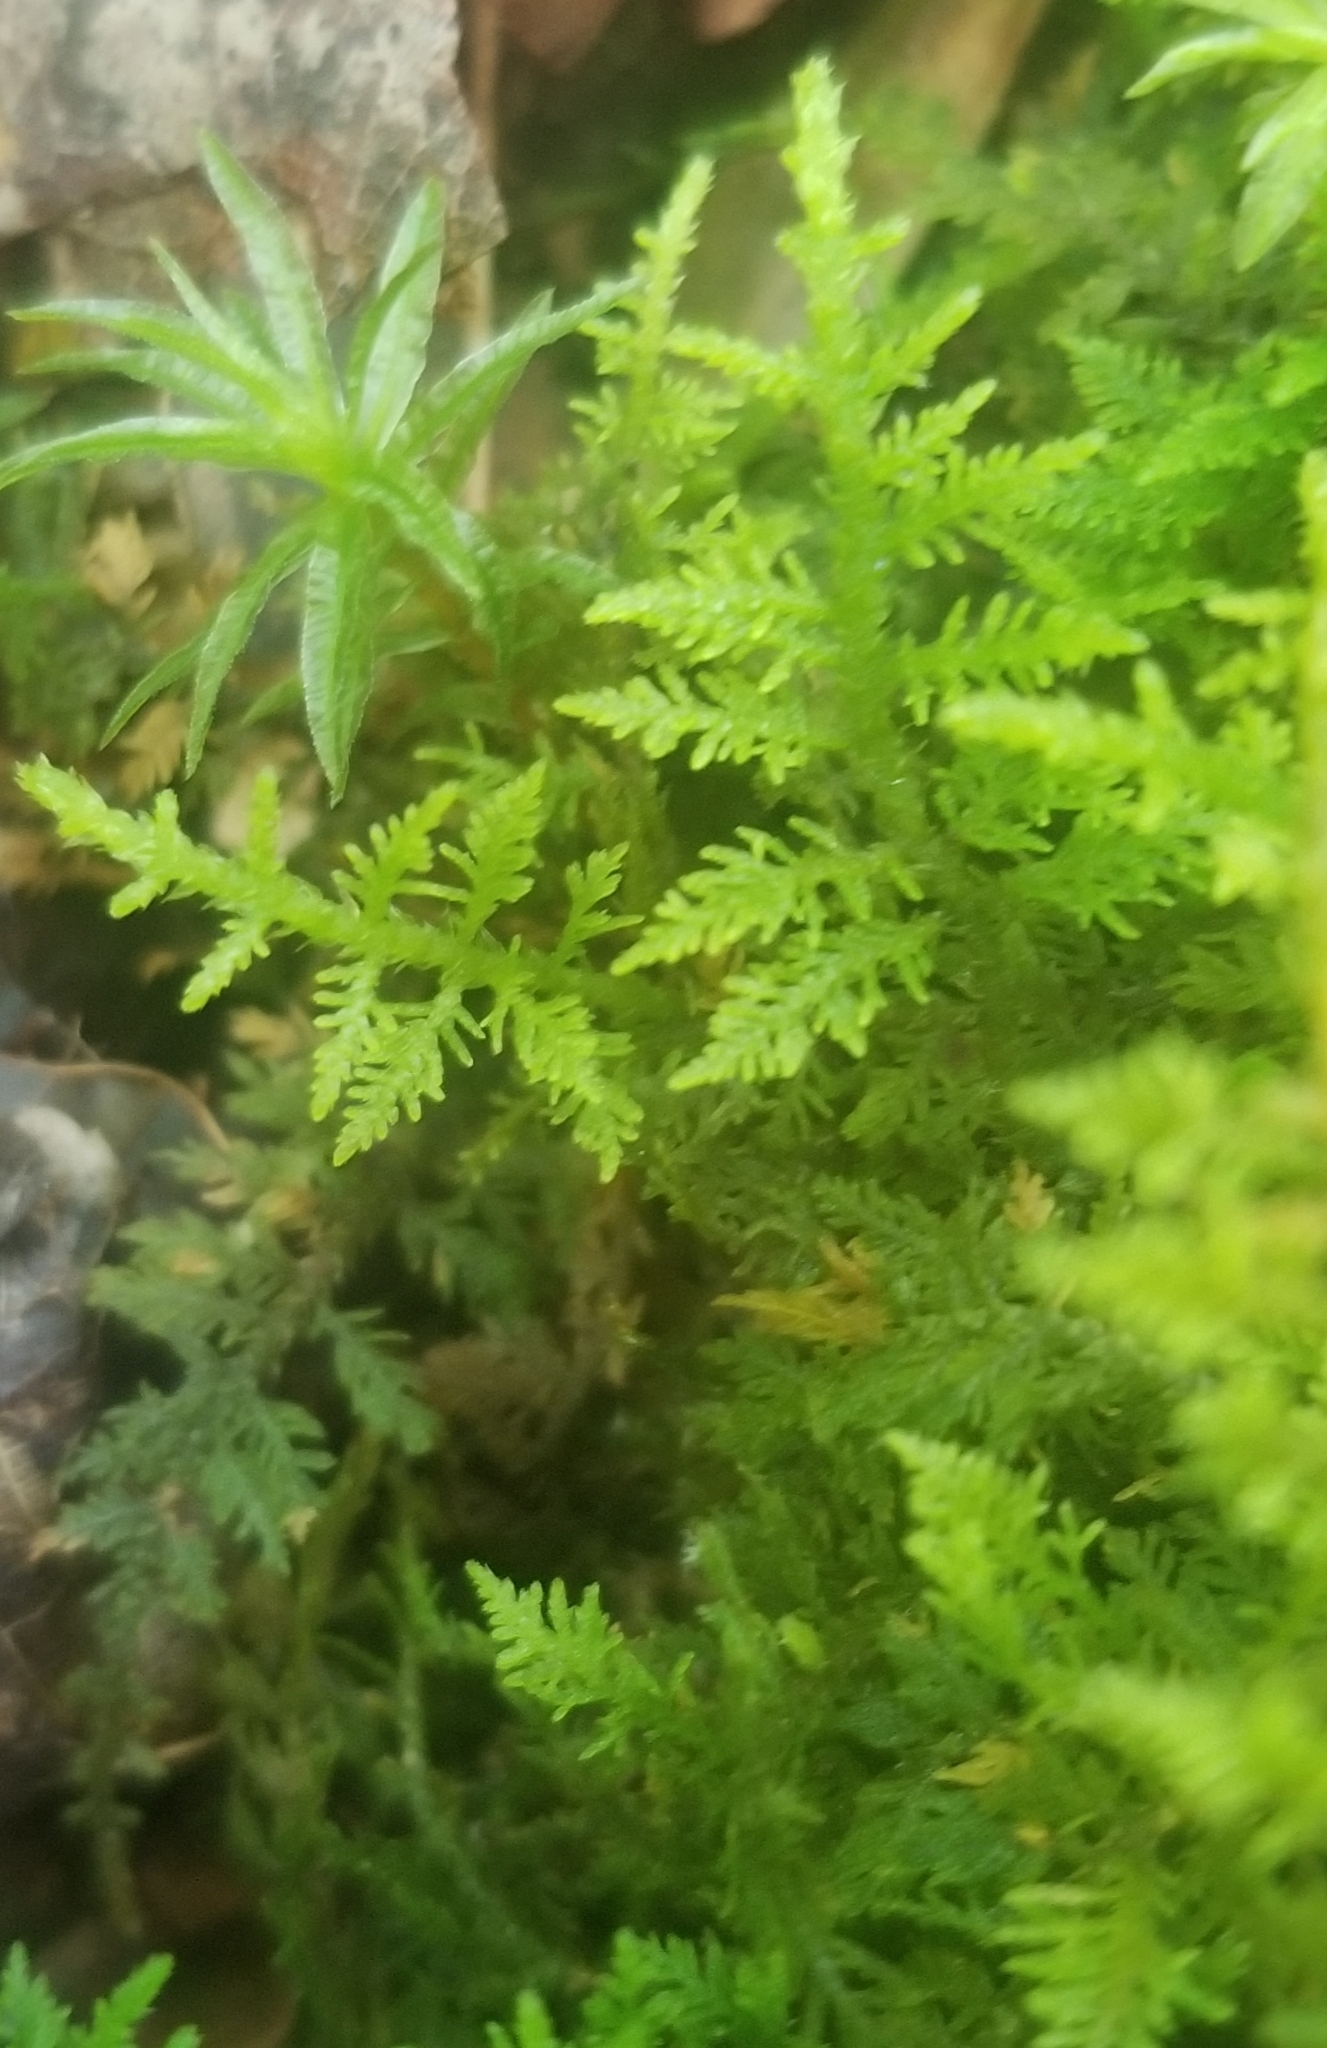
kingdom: Plantae
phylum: Bryophyta
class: Bryopsida
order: Hypnales
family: Thuidiaceae
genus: Thuidium
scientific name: Thuidium delicatulum
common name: Delicate fern moss
